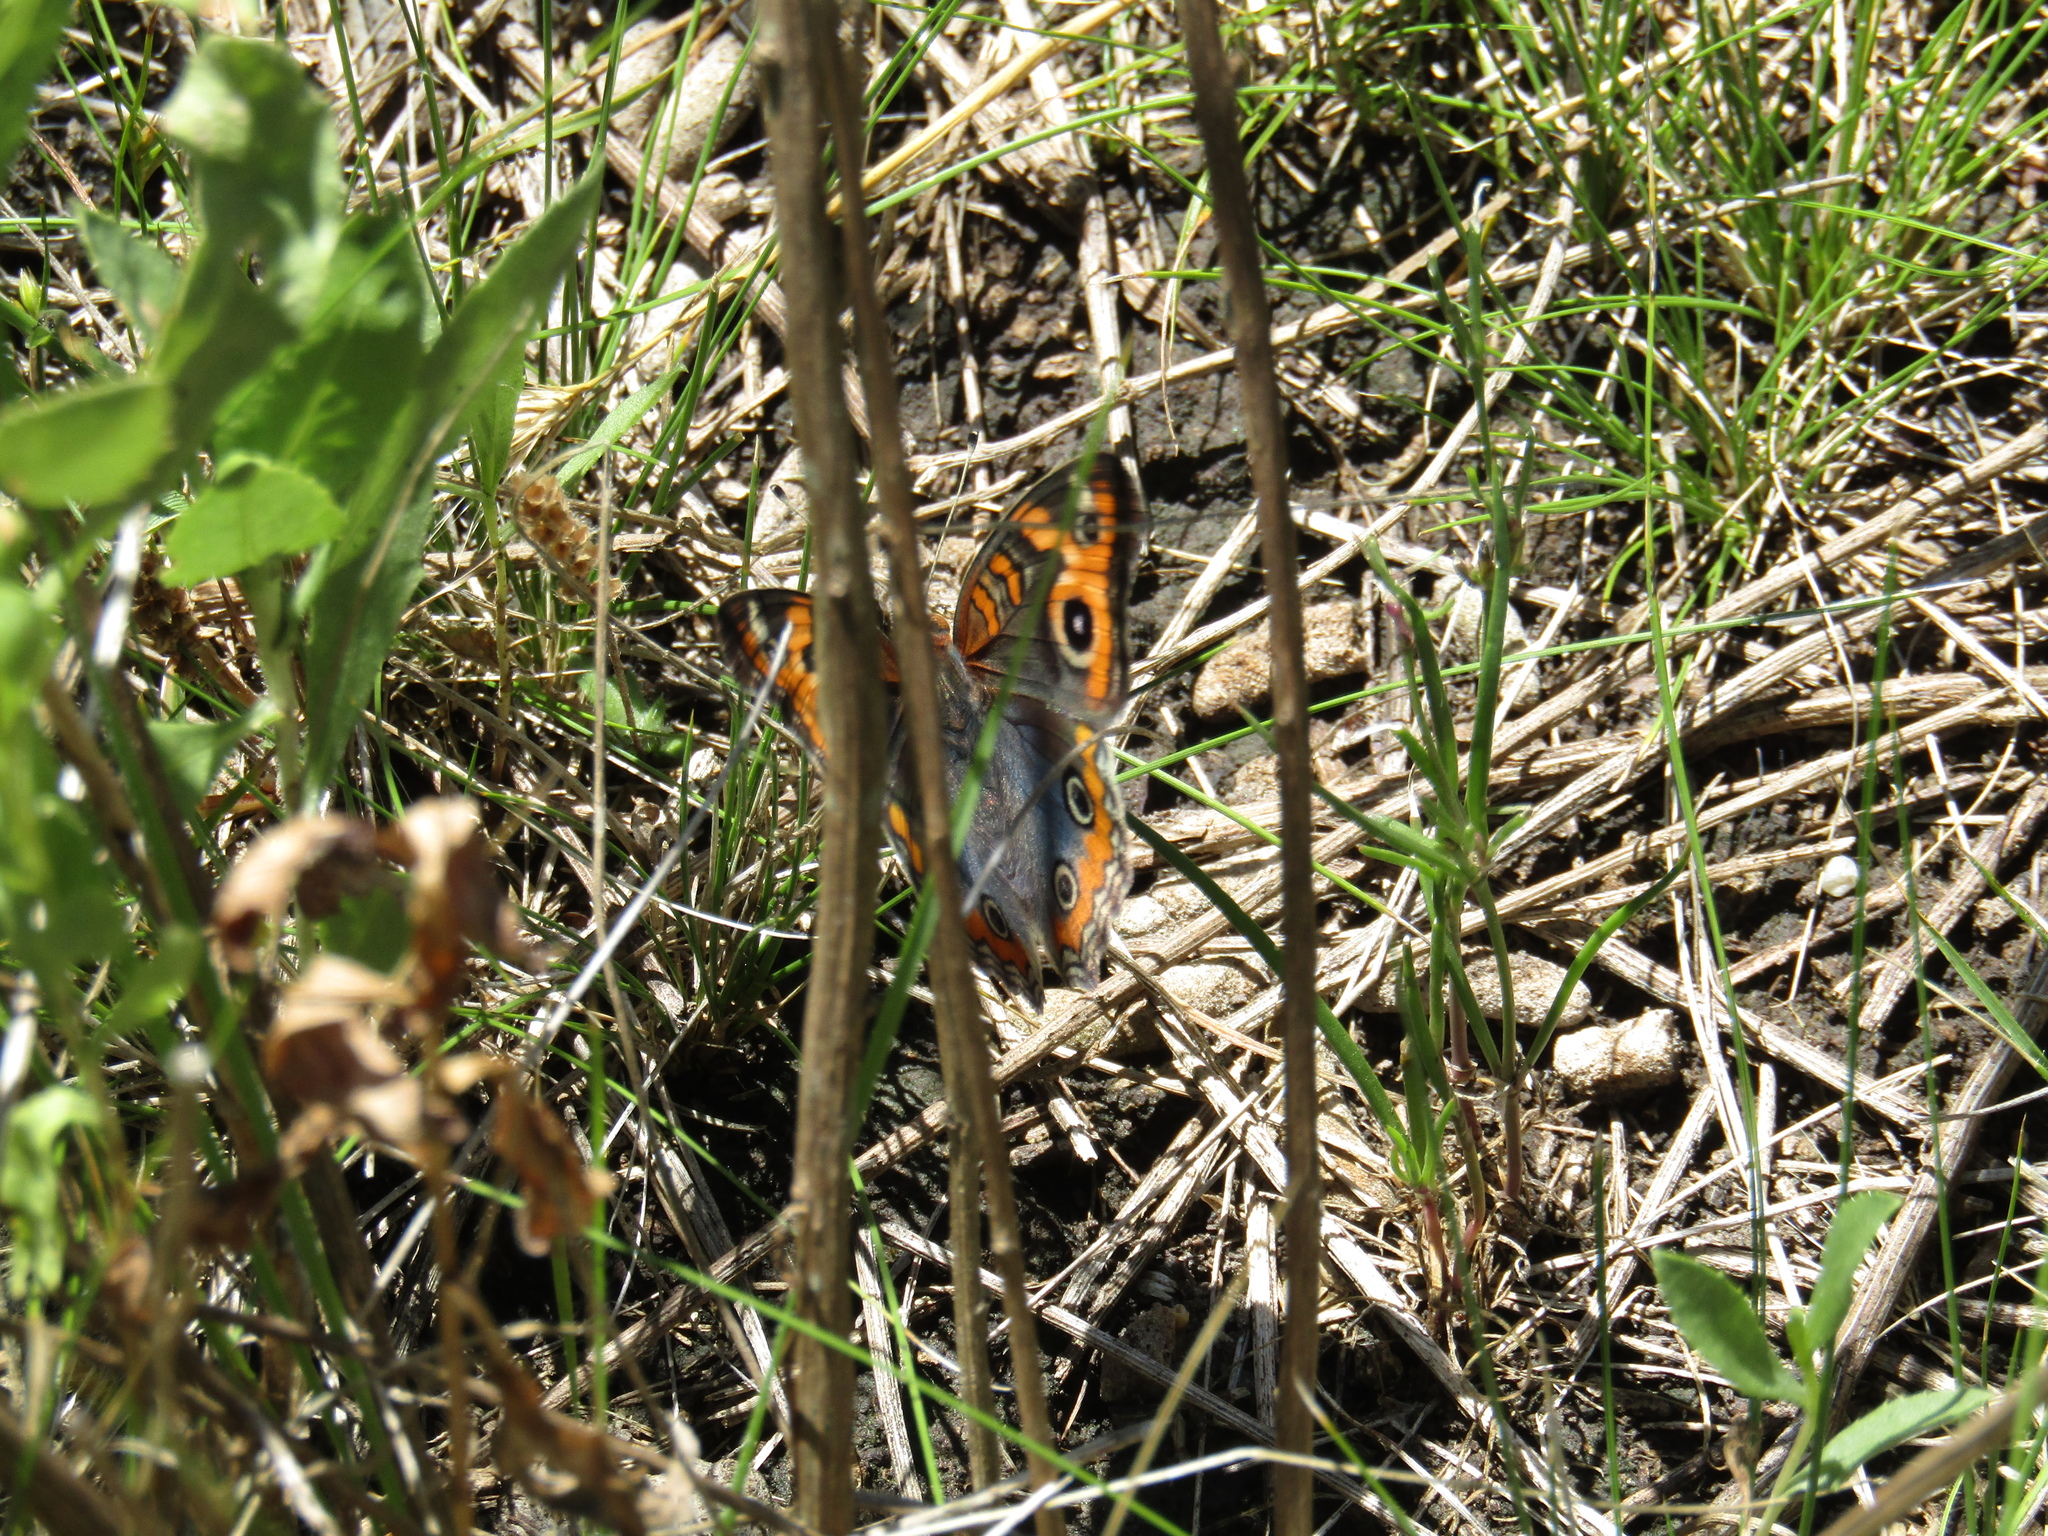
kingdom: Animalia
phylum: Arthropoda
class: Insecta
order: Lepidoptera
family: Nymphalidae
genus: Junonia
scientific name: Junonia lavinia
